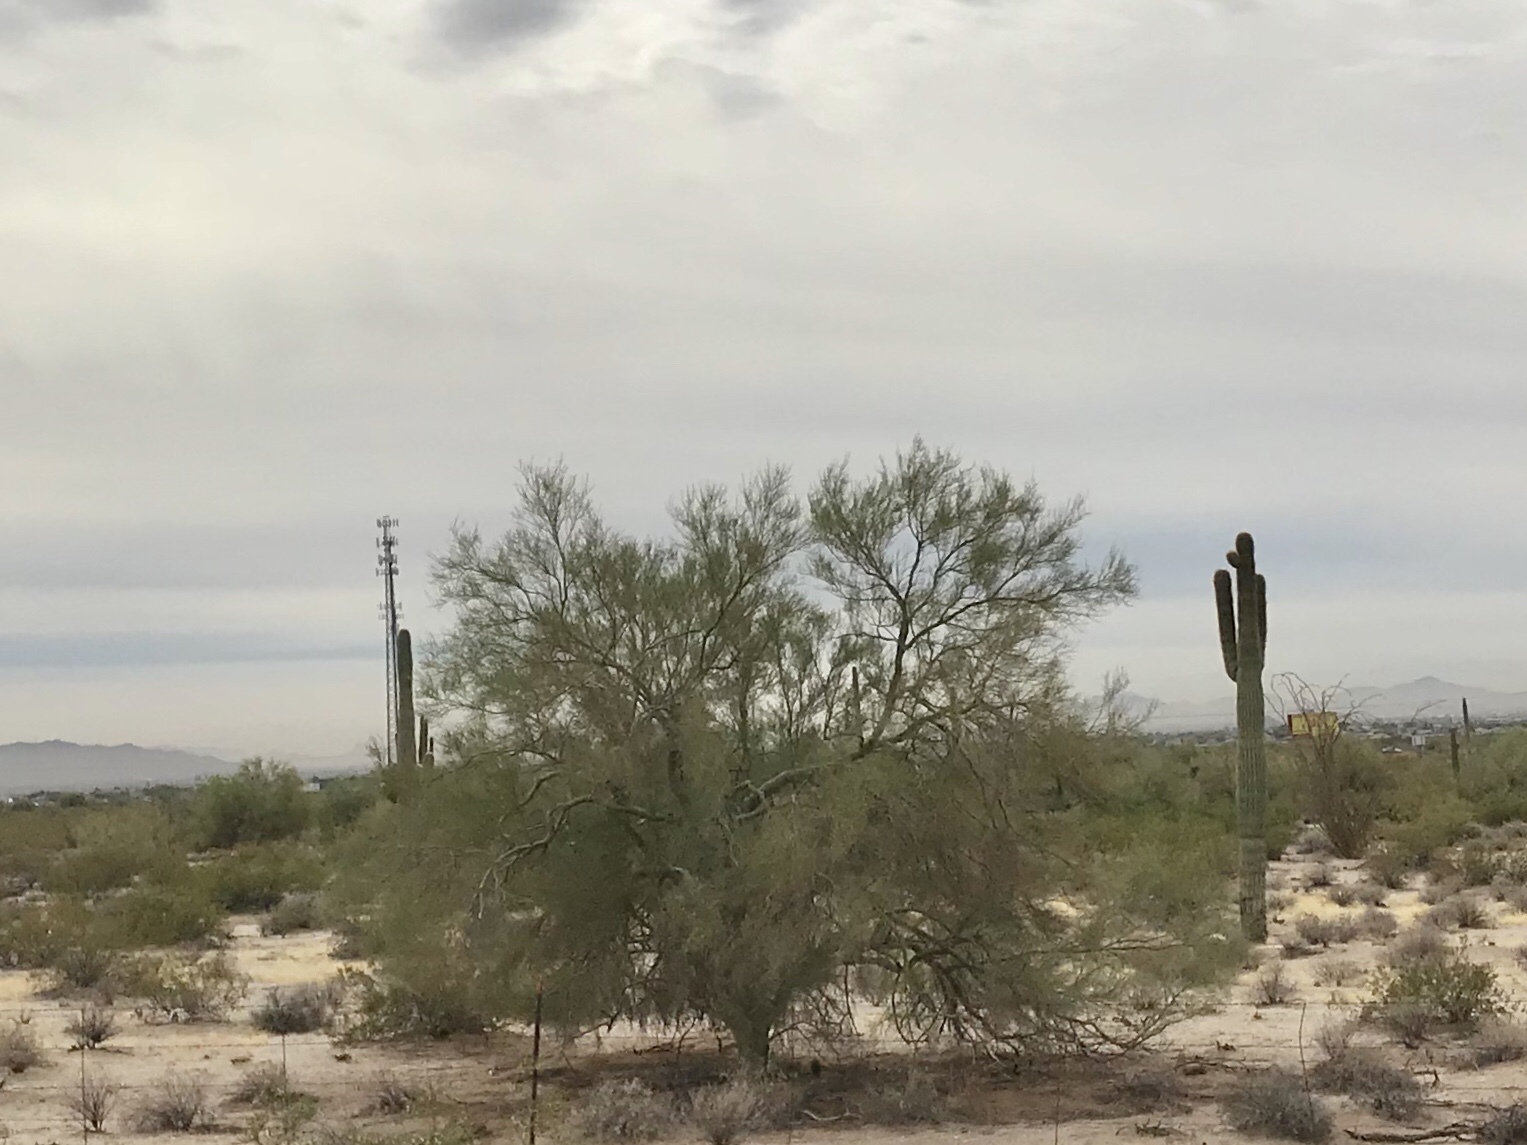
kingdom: Plantae
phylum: Tracheophyta
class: Magnoliopsida
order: Fabales
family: Fabaceae
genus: Parkinsonia
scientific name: Parkinsonia florida
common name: Blue paloverde
